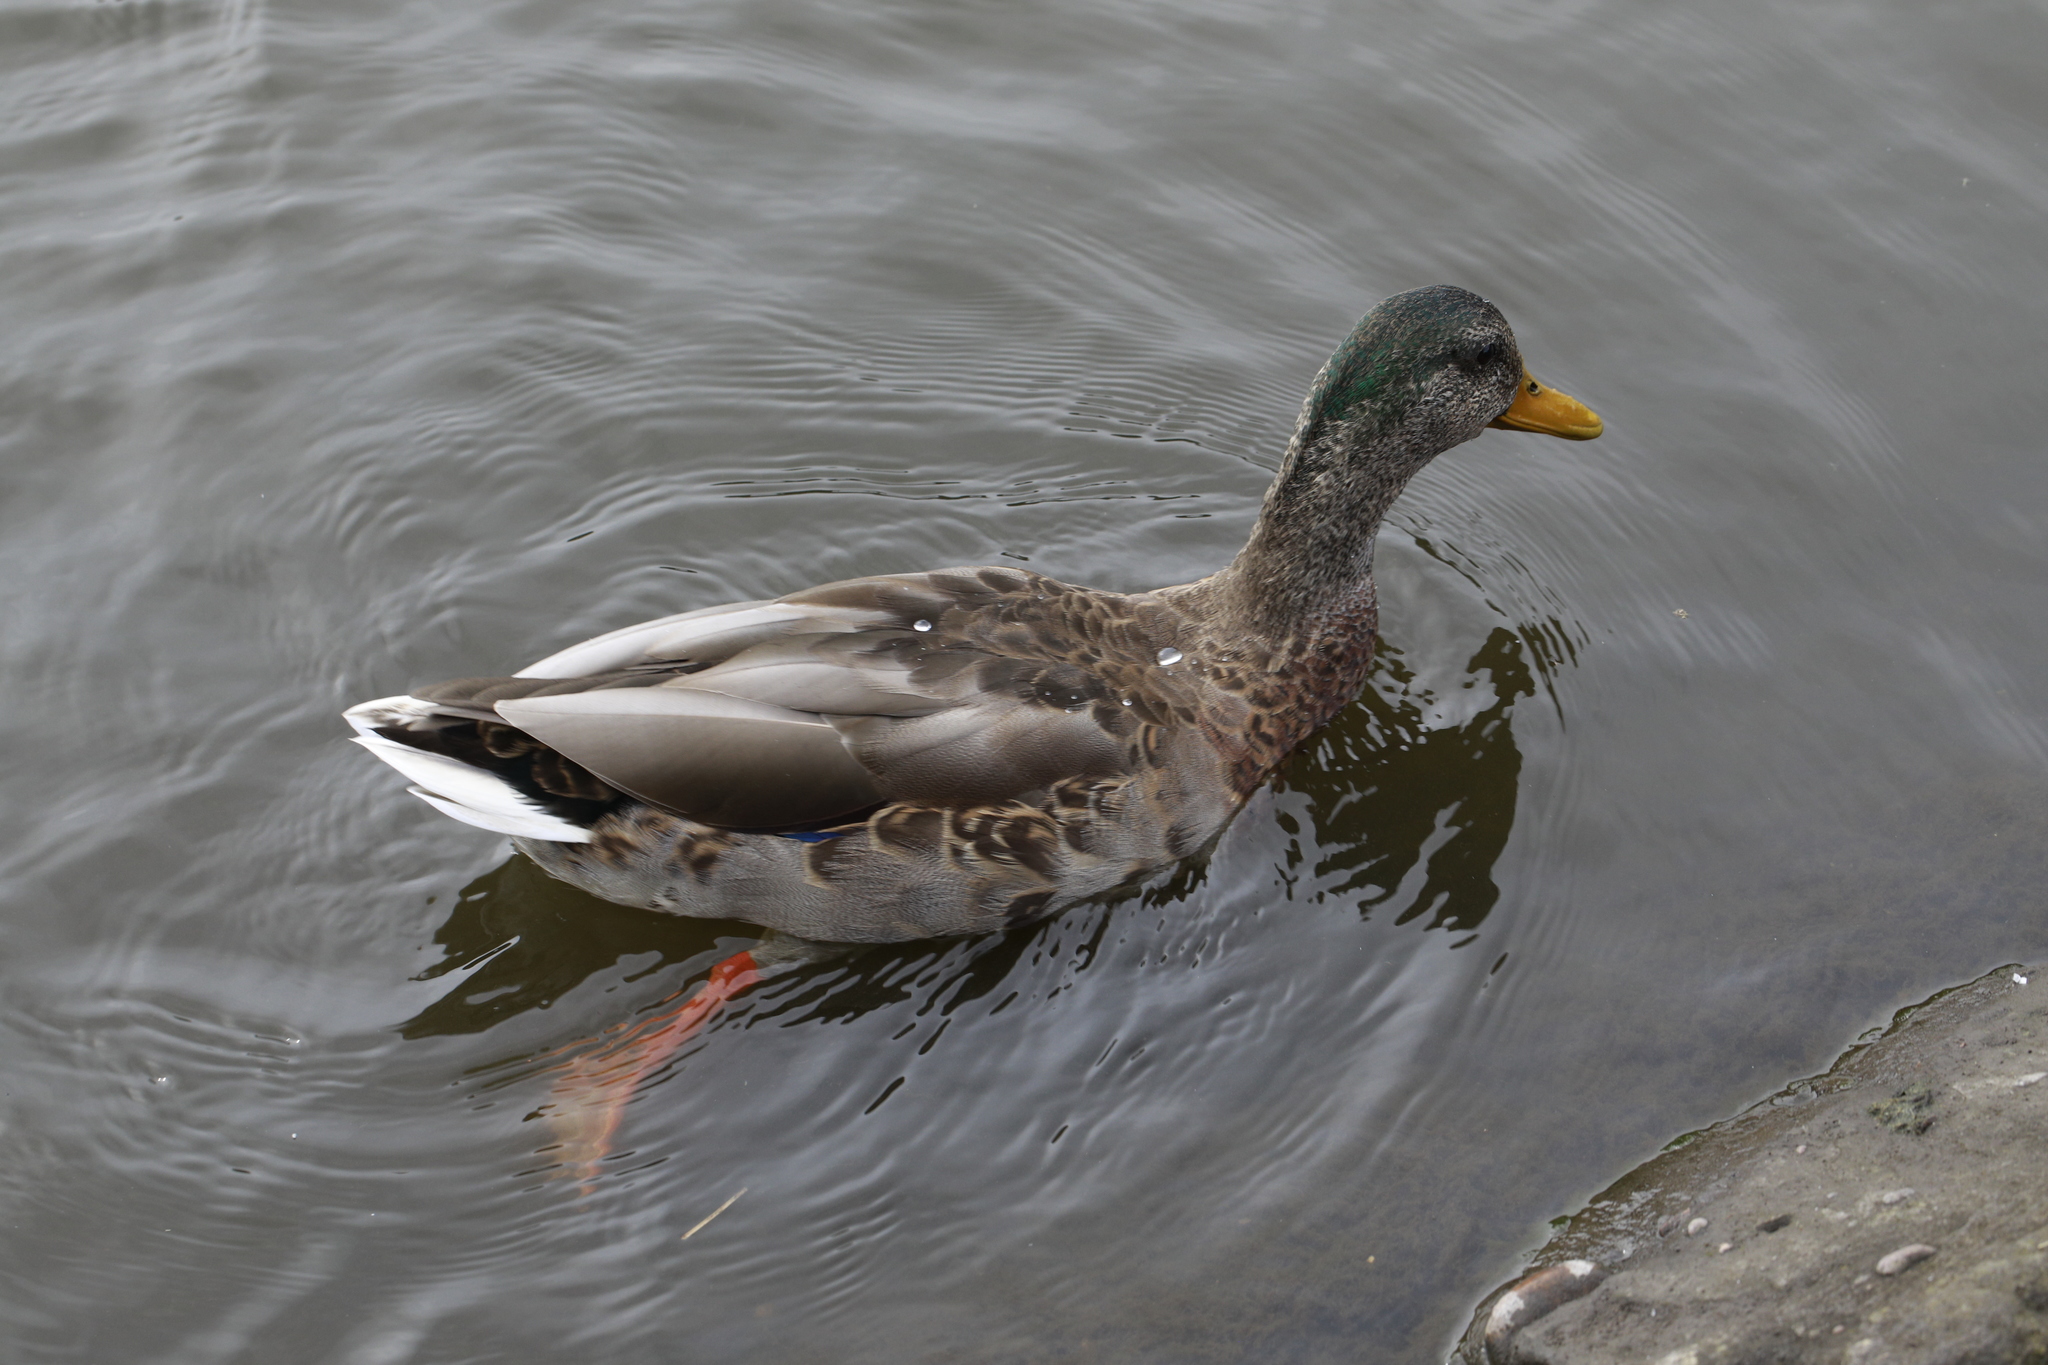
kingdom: Animalia
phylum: Chordata
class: Aves
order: Anseriformes
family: Anatidae
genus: Anas
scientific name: Anas platyrhynchos
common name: Mallard
